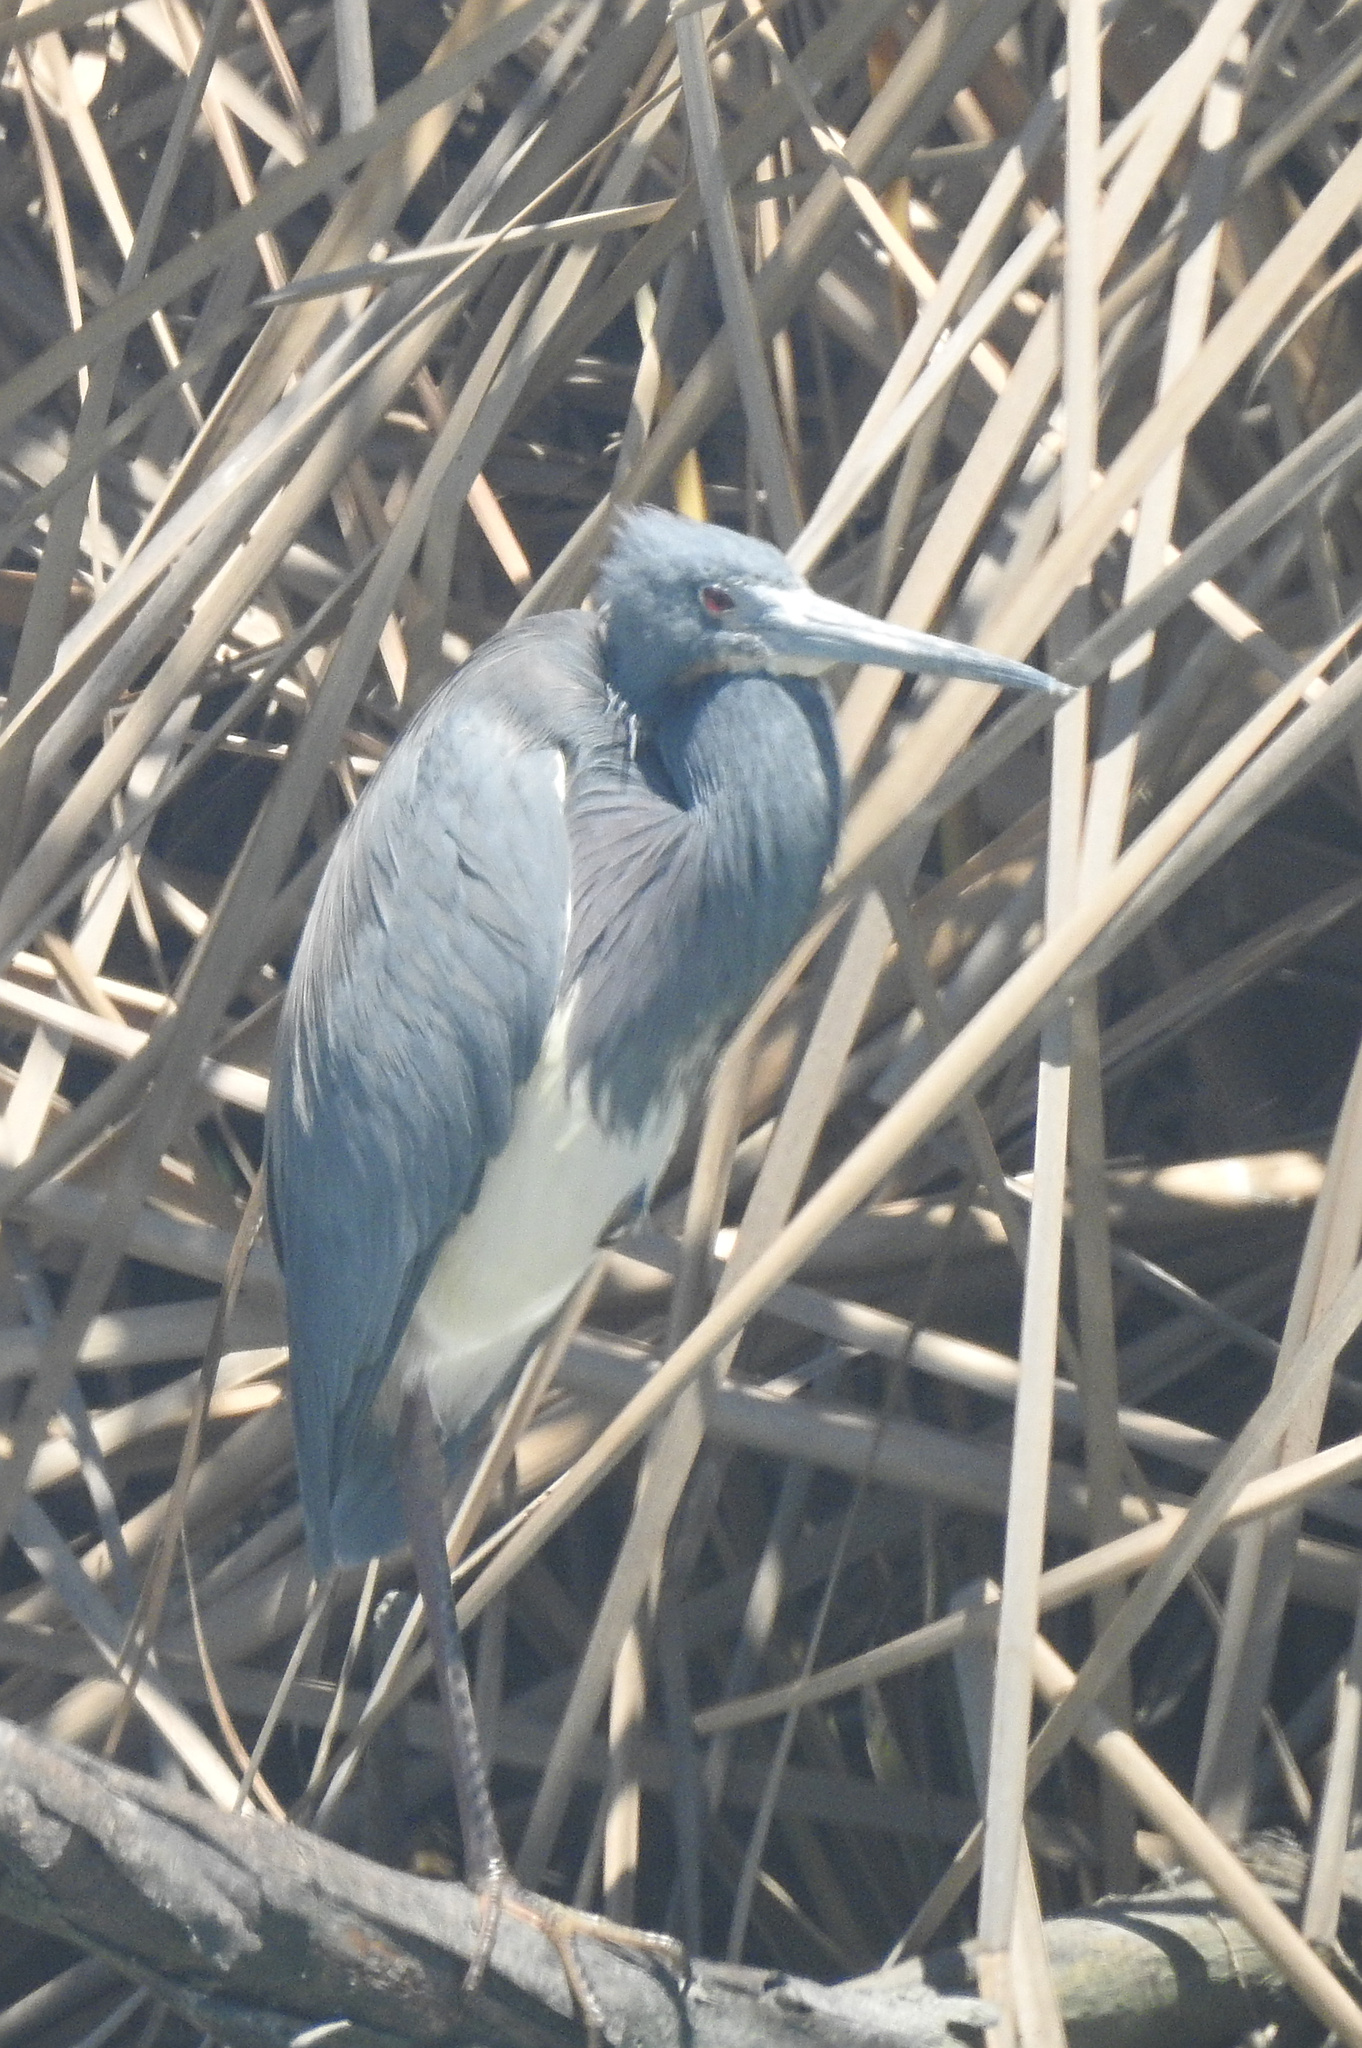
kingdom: Animalia
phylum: Chordata
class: Aves
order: Pelecaniformes
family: Ardeidae
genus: Egretta
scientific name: Egretta tricolor
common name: Tricolored heron
